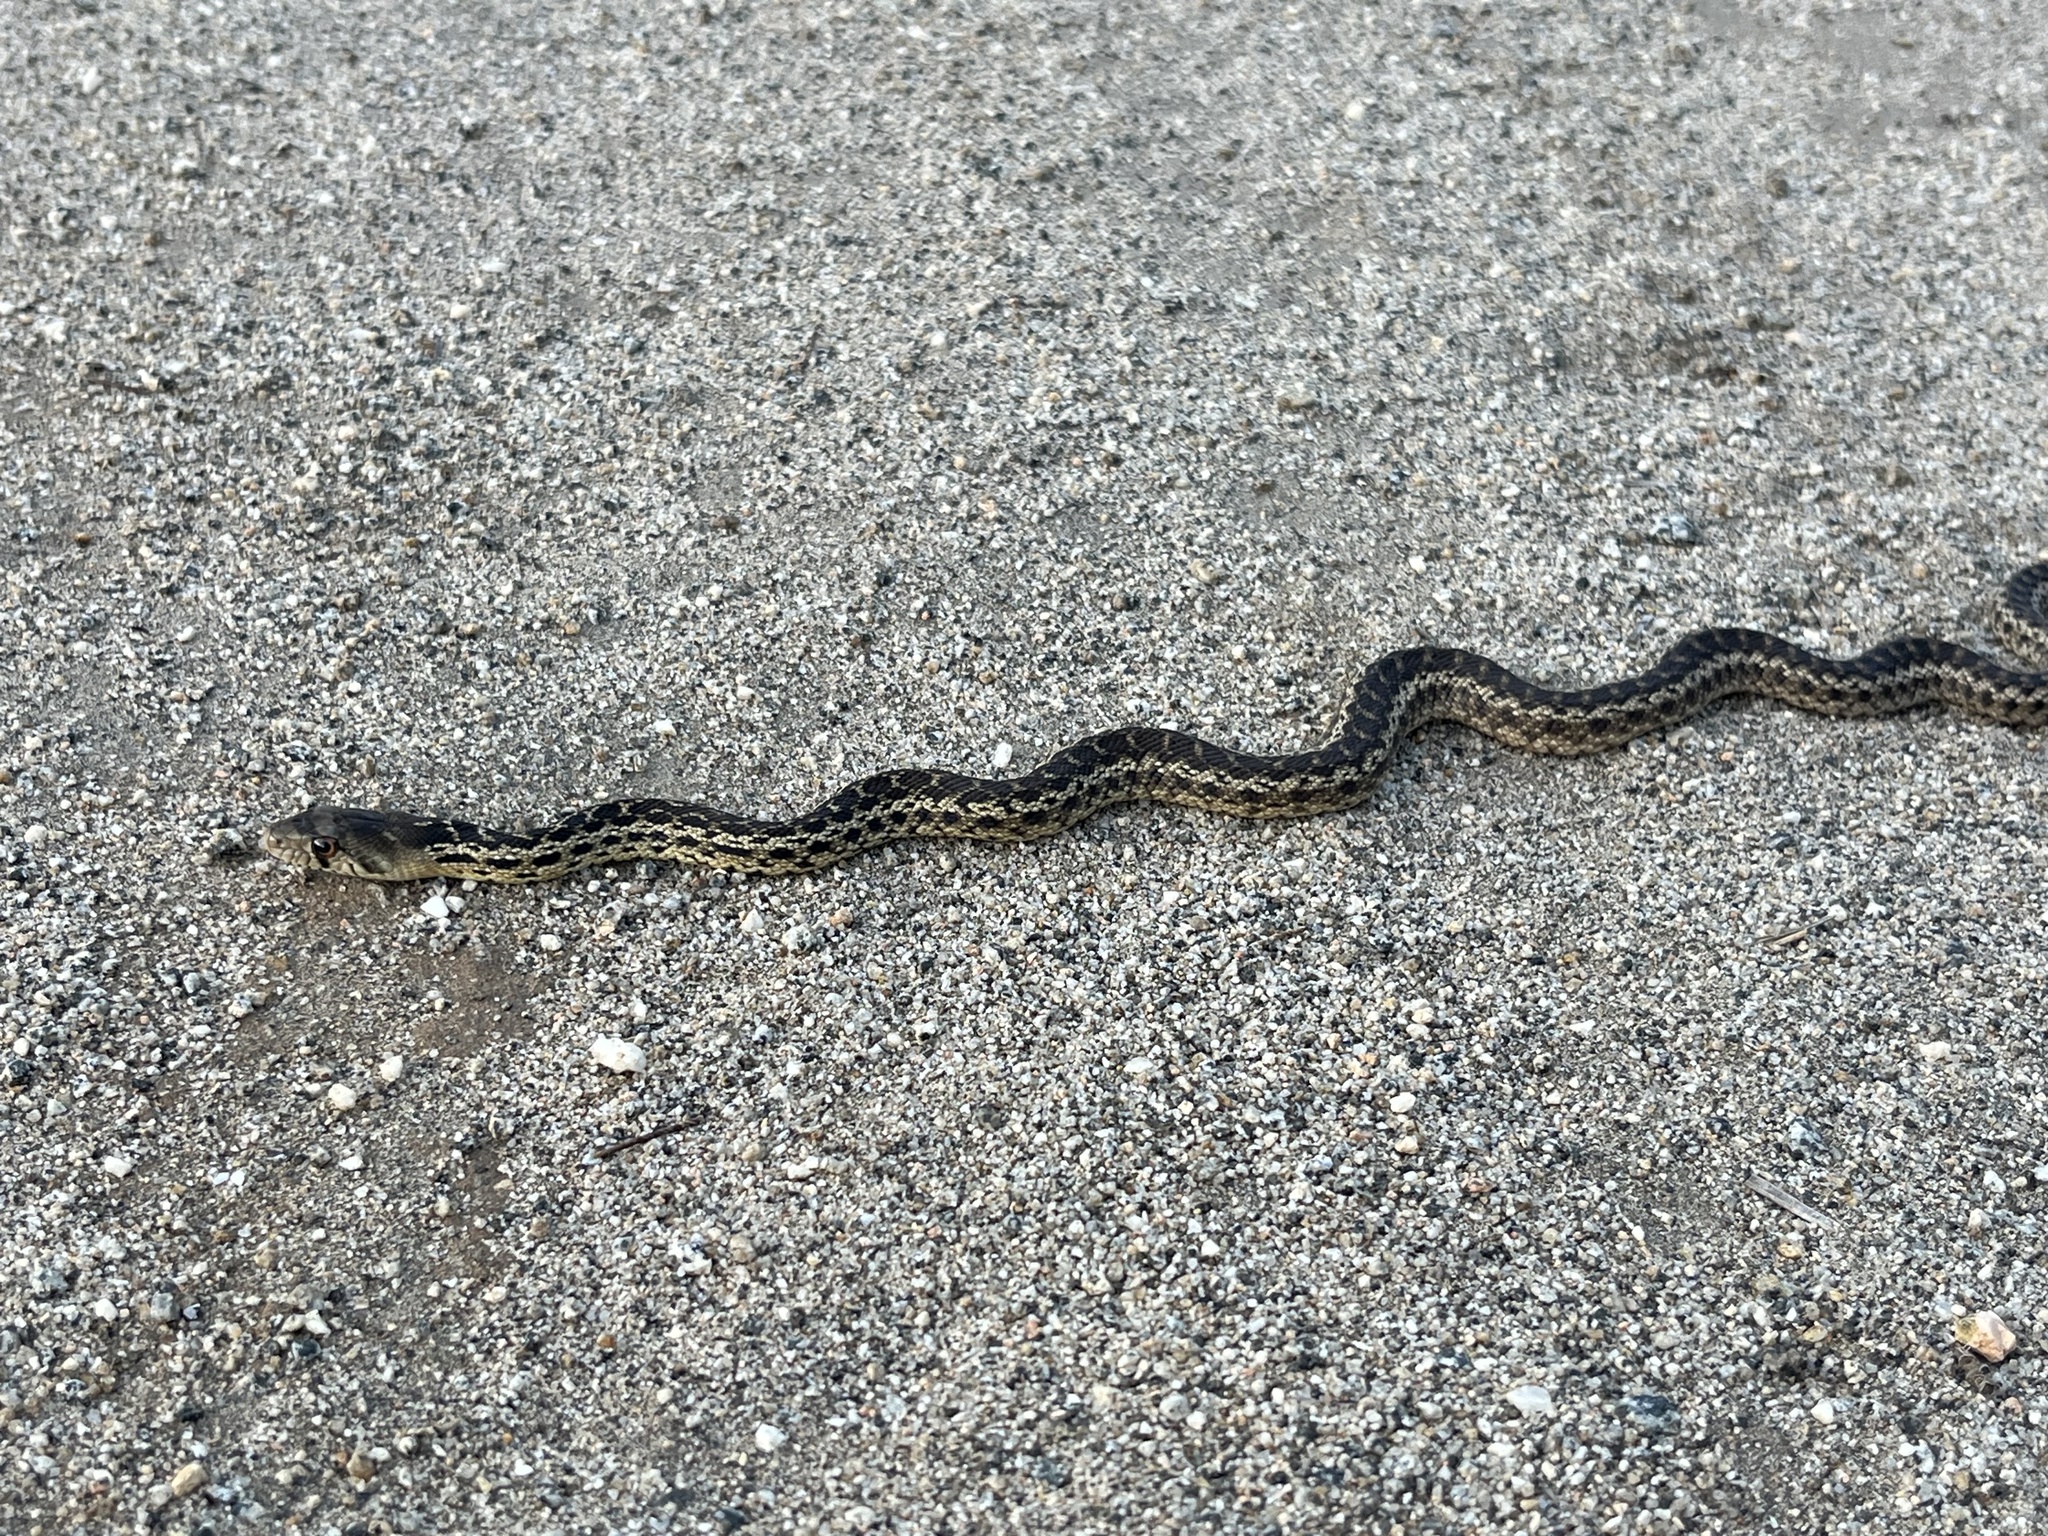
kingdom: Animalia
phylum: Chordata
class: Squamata
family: Colubridae
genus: Pituophis
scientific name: Pituophis catenifer
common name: Gopher snake
